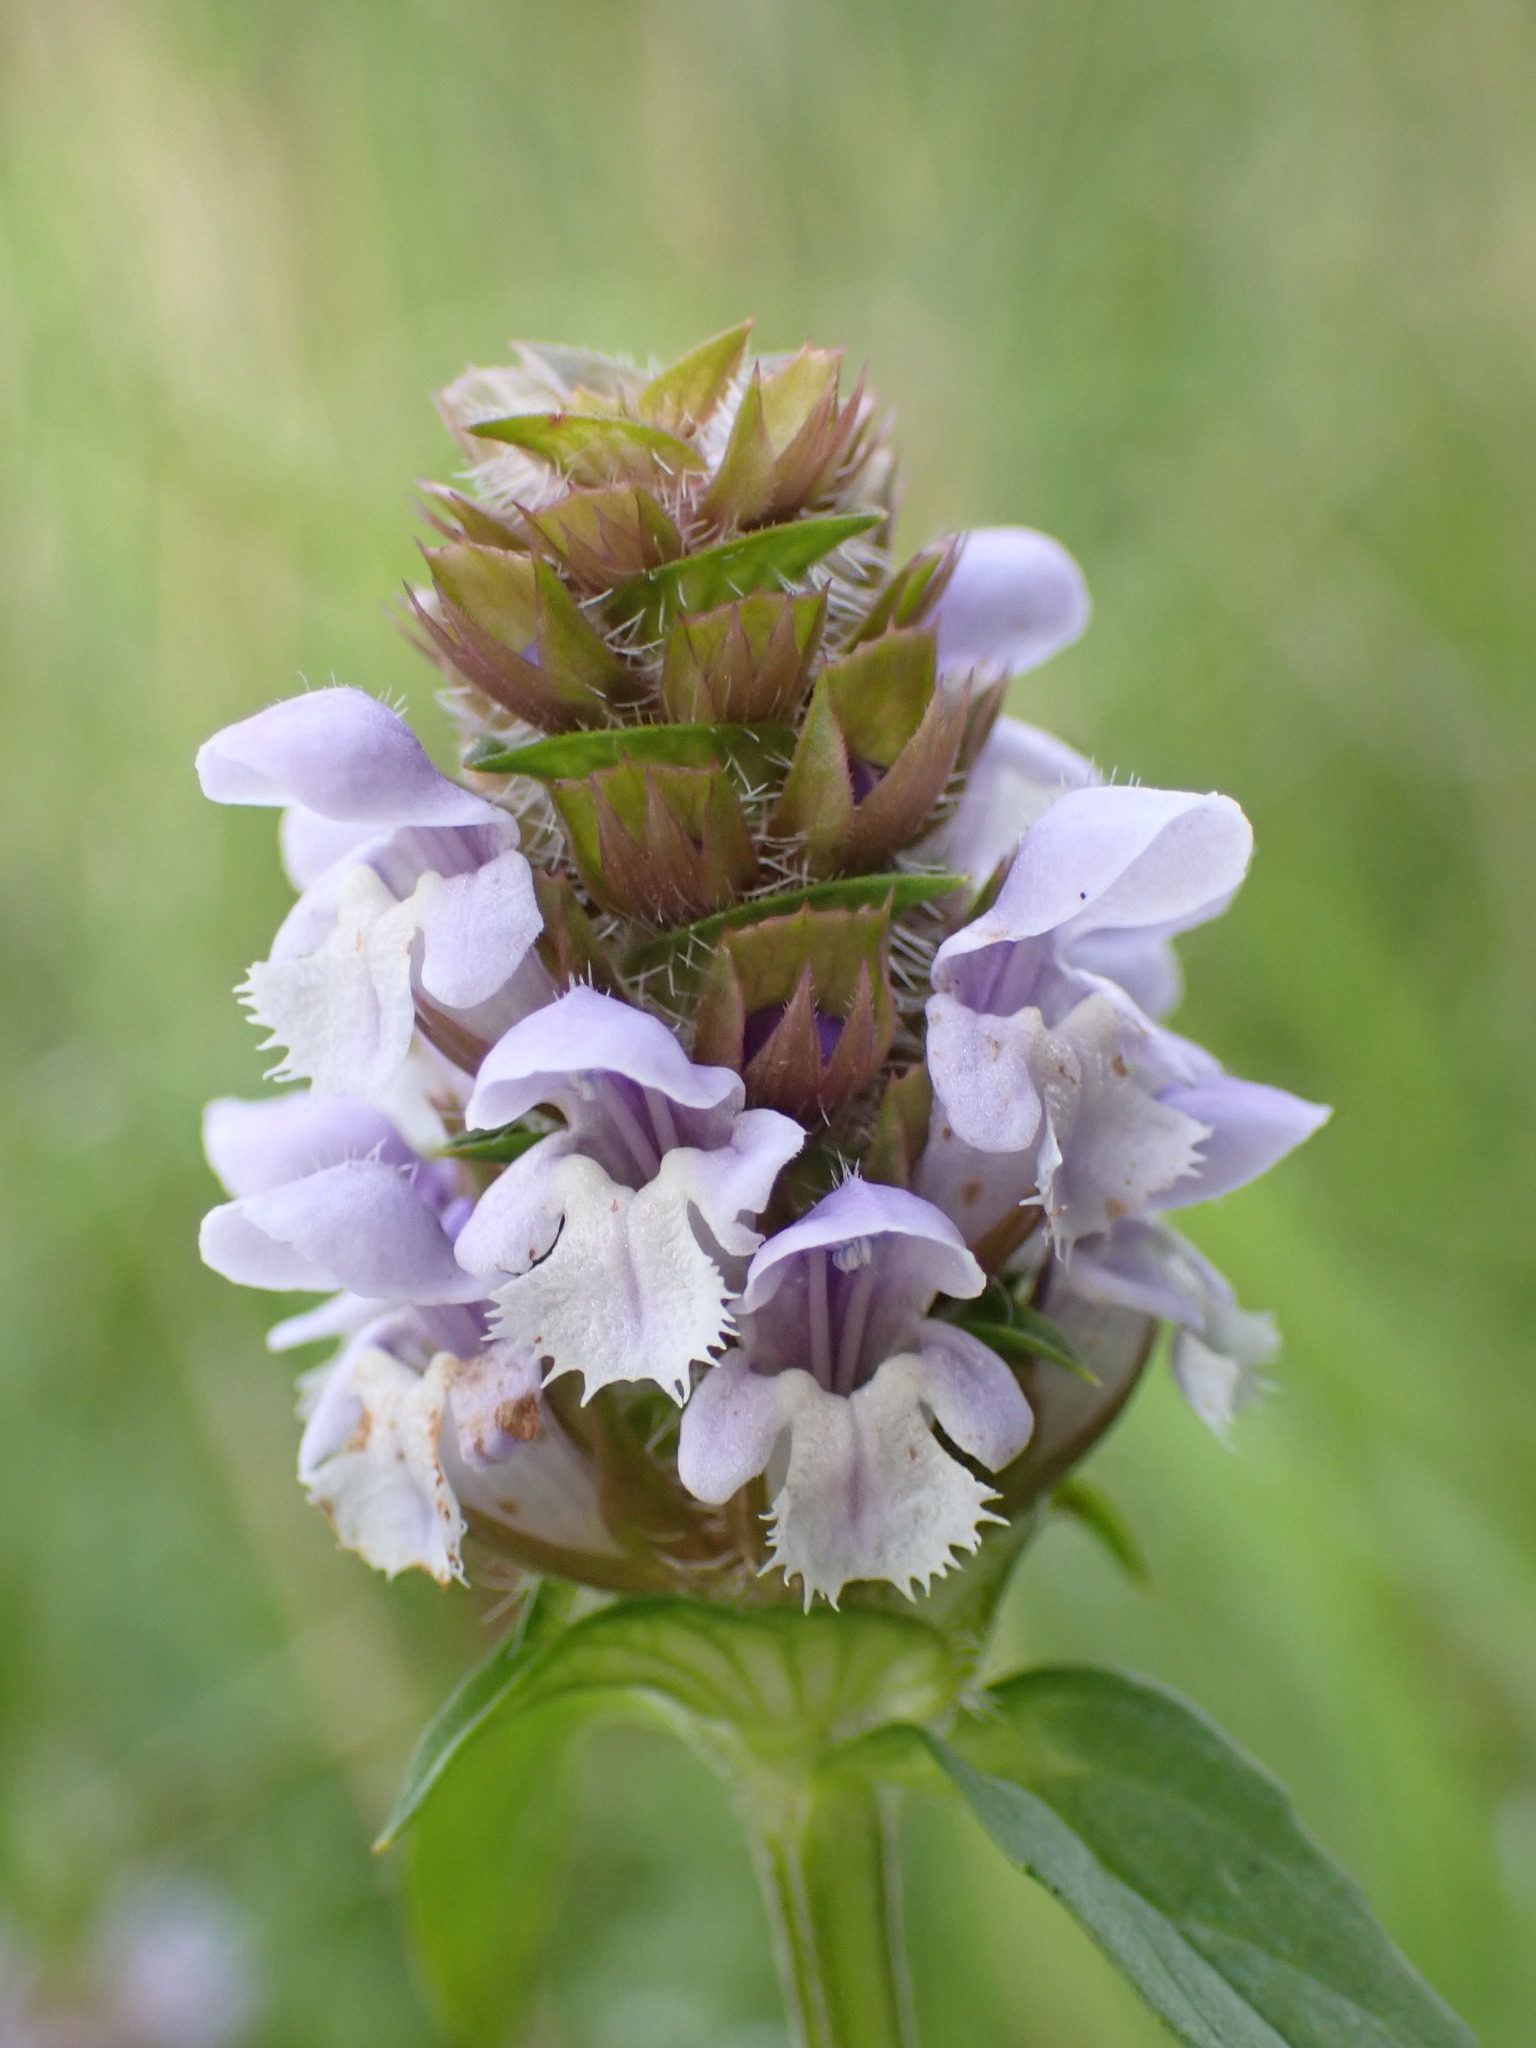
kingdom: Plantae
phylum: Tracheophyta
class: Magnoliopsida
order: Lamiales
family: Lamiaceae
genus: Prunella
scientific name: Prunella vulgaris
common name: Heal-all
